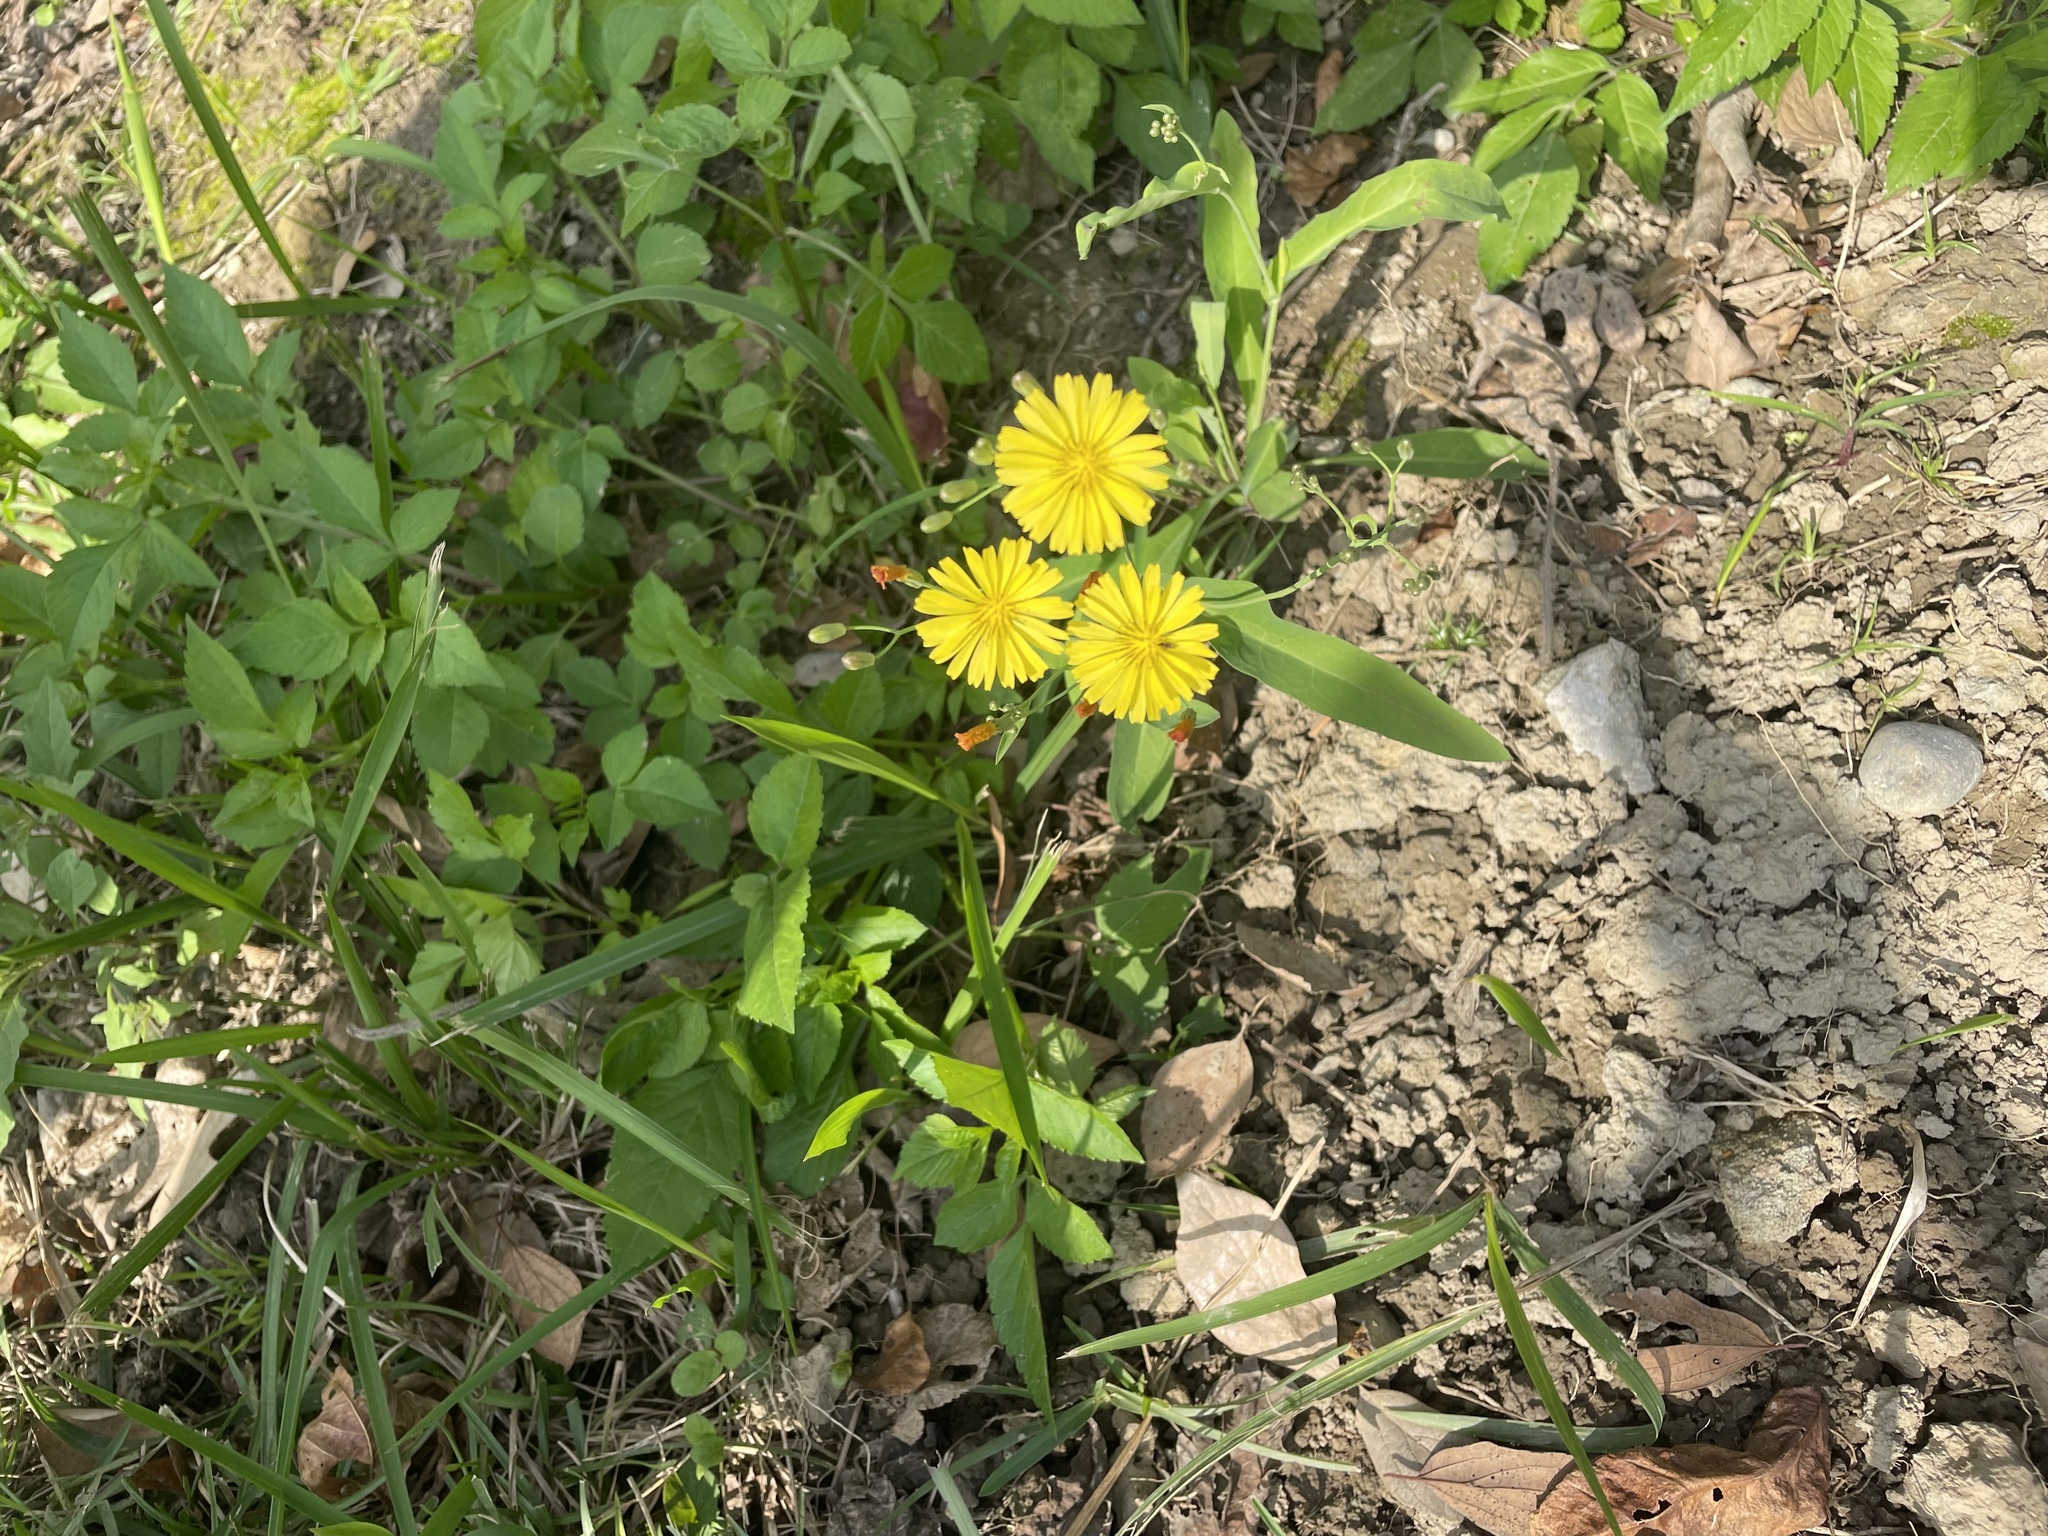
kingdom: Plantae
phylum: Tracheophyta
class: Magnoliopsida
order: Asterales
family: Asteraceae
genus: Ixeris
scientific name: Ixeris chinensis
